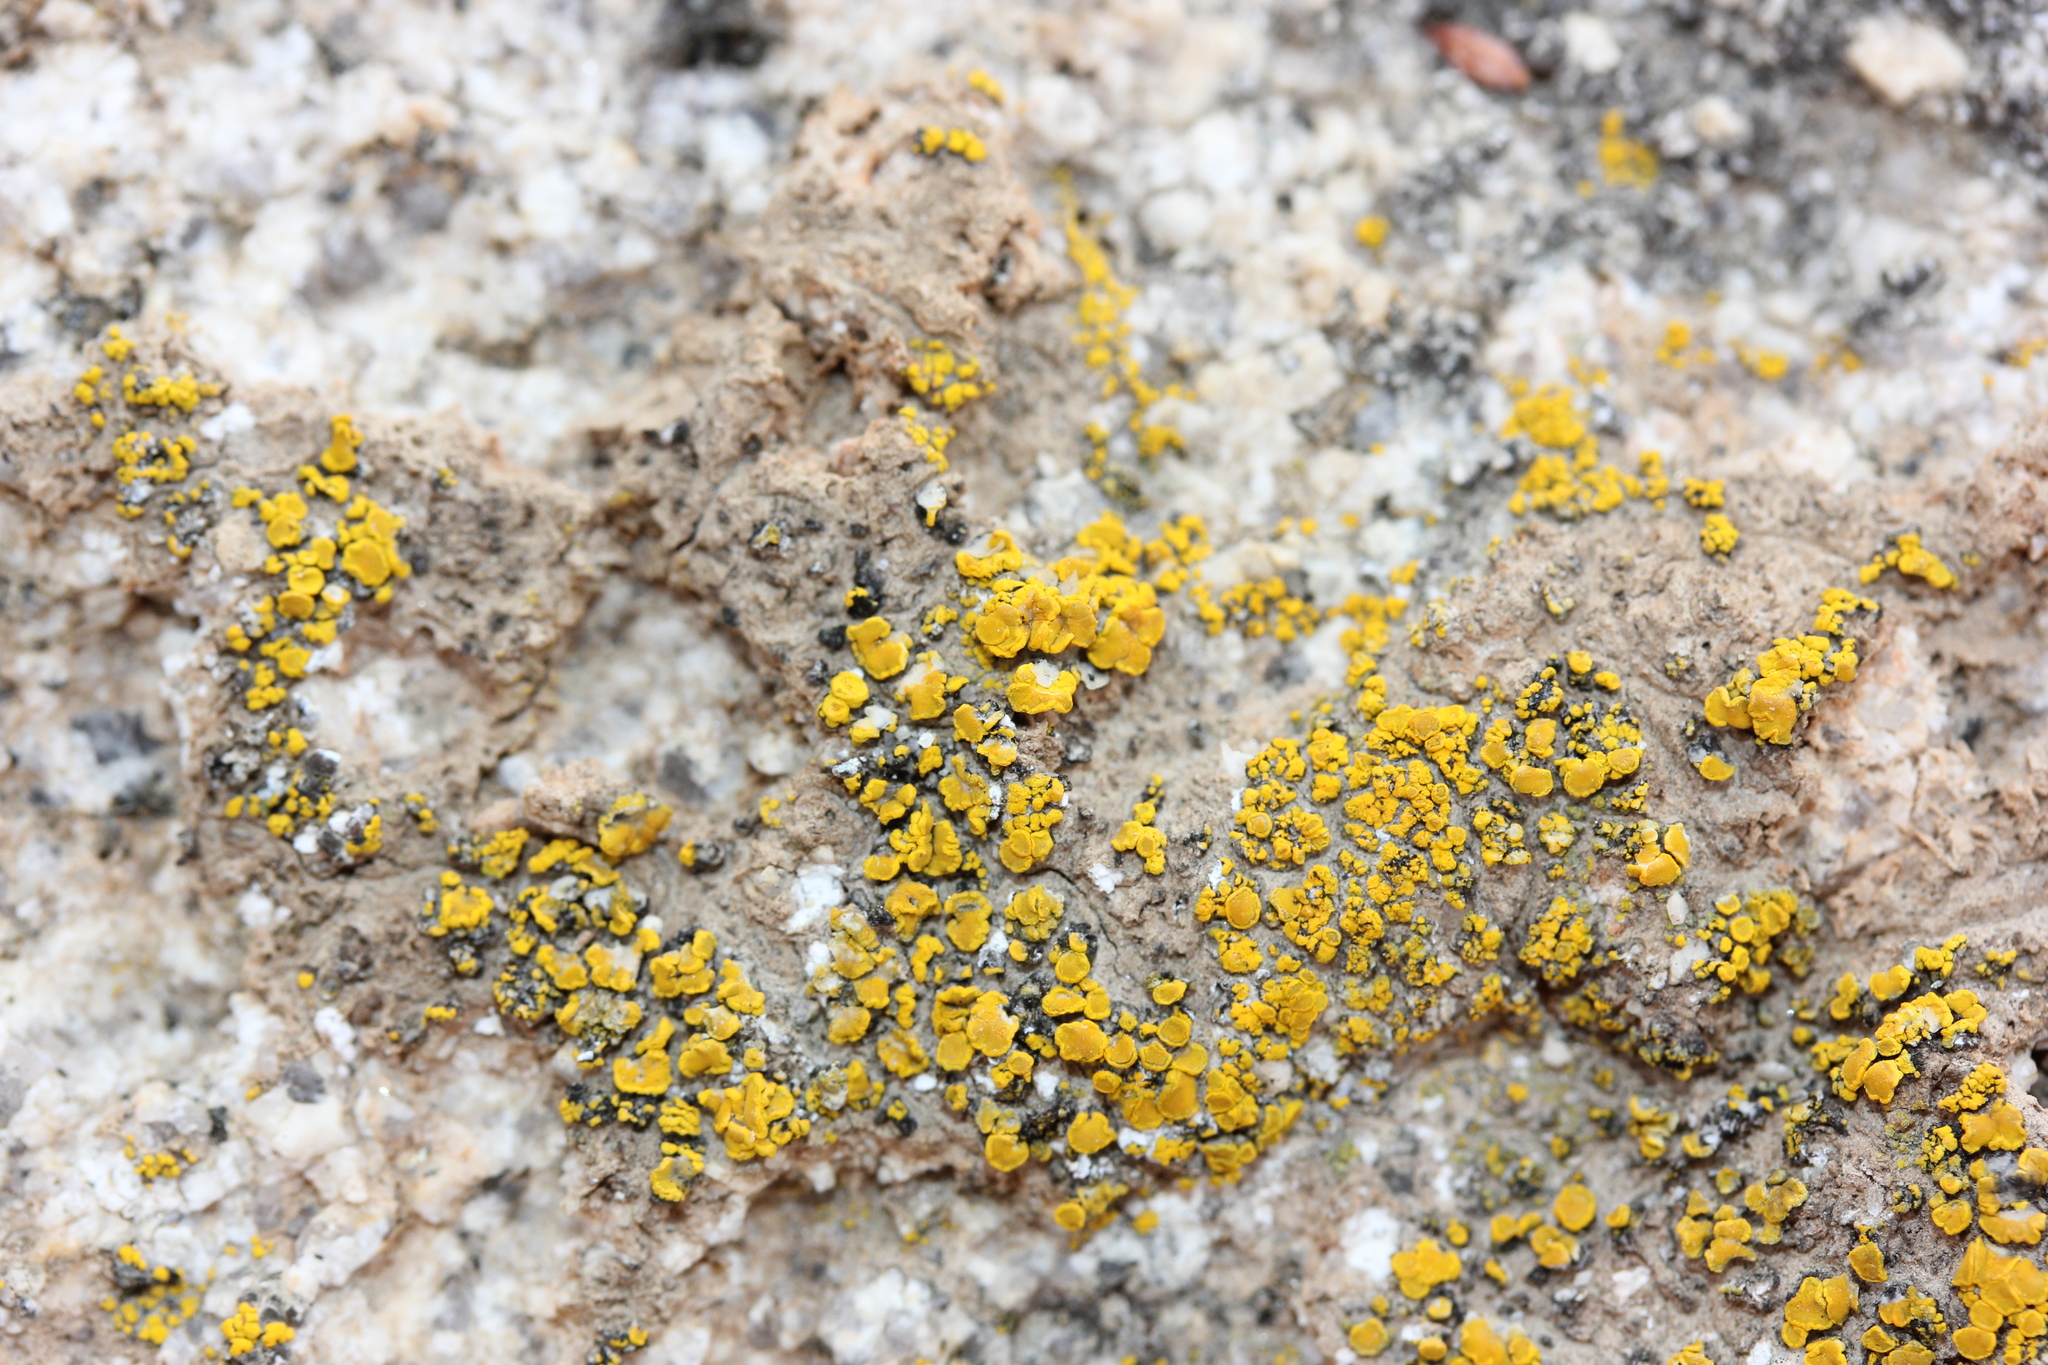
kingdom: Fungi
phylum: Ascomycota
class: Candelariomycetes
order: Candelariales
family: Candelariaceae
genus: Candelariella
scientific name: Candelariella aurella
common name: Hidden goldspeck lichen
